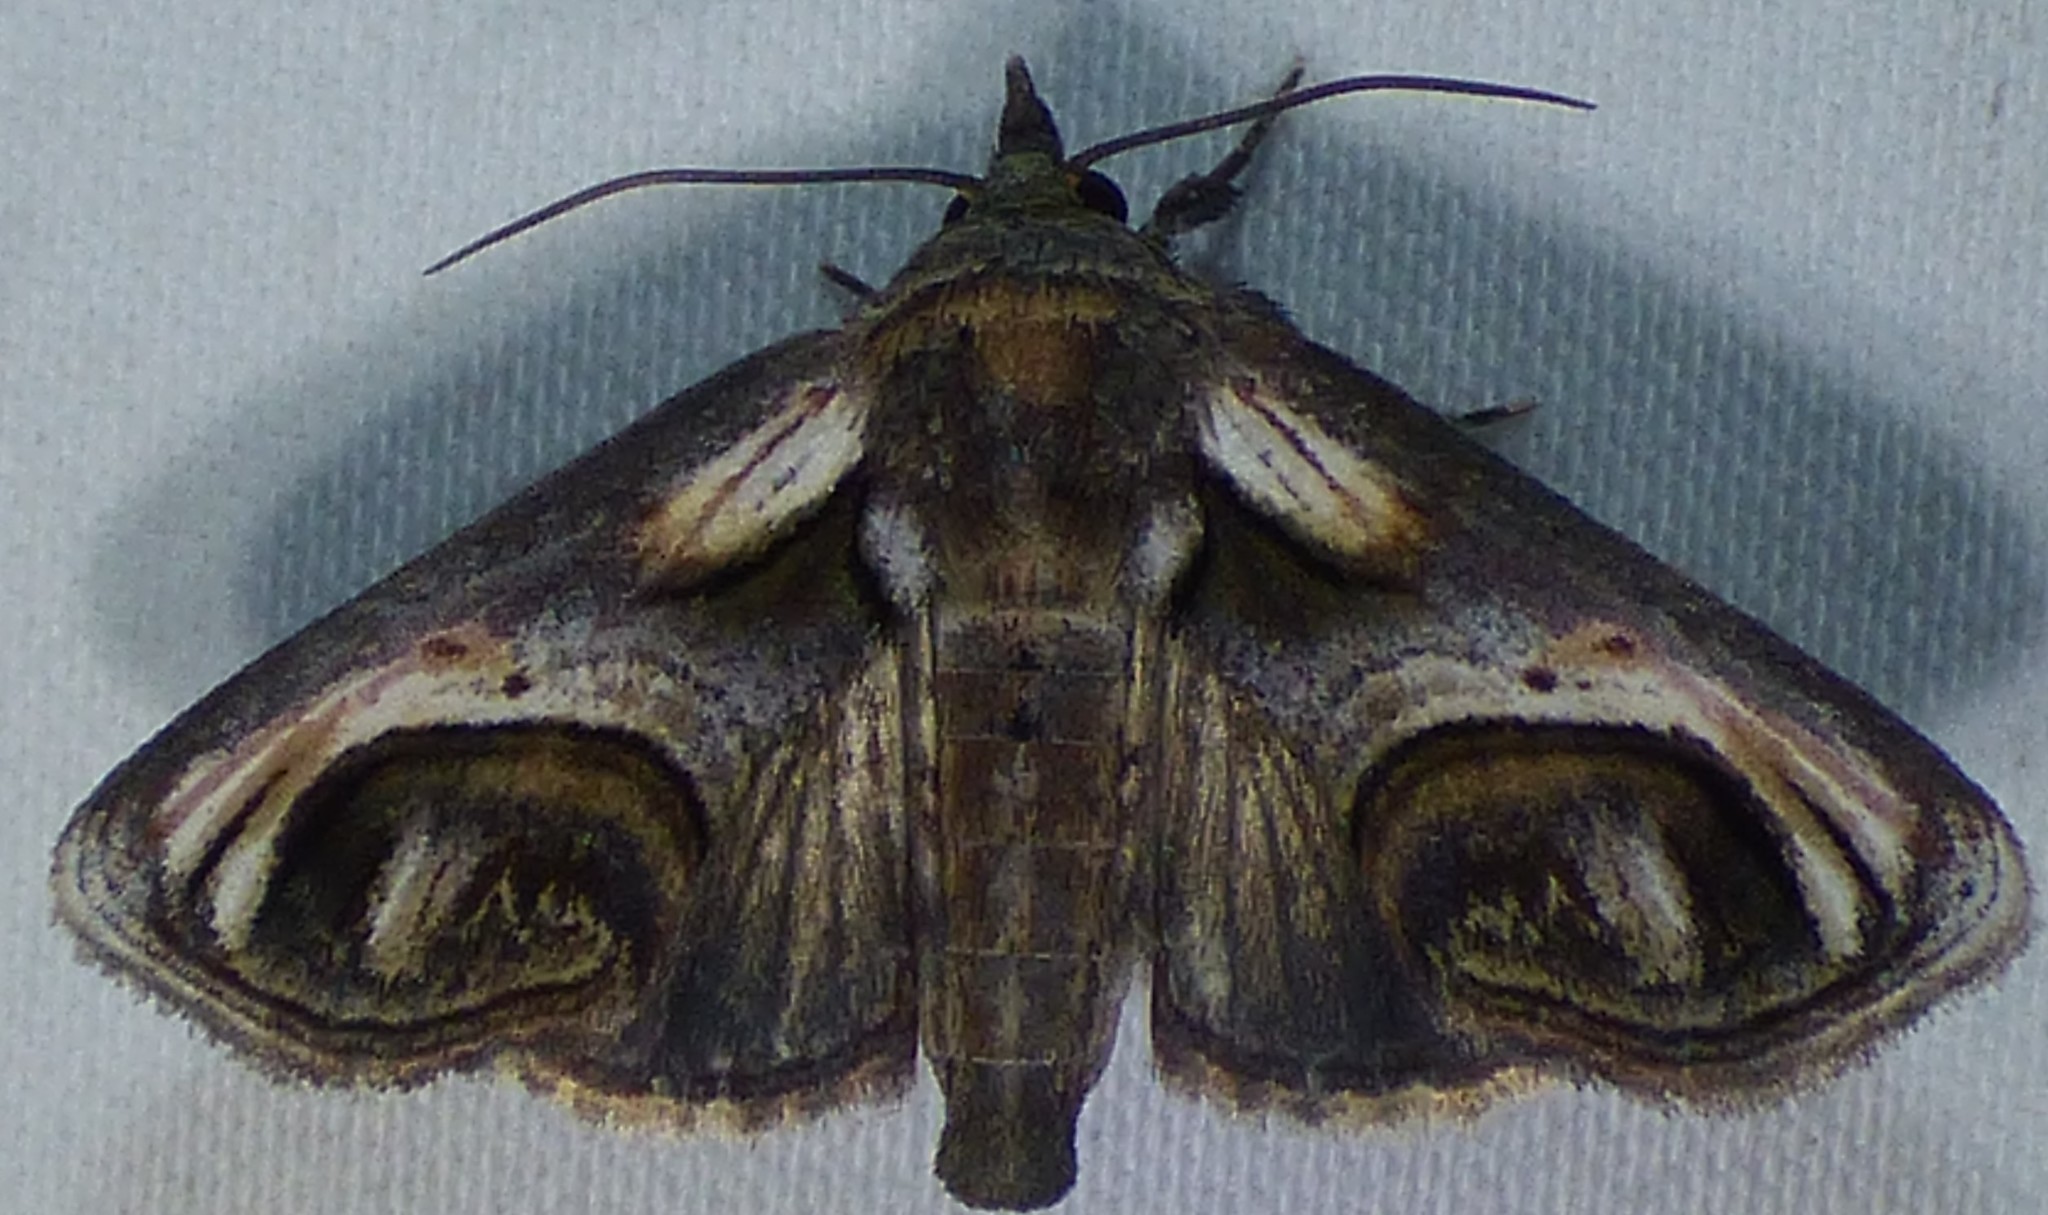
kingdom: Animalia
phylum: Arthropoda
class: Insecta
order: Lepidoptera
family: Euteliidae
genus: Paectes
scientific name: Paectes oculatrix
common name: Eyed paectes moth
